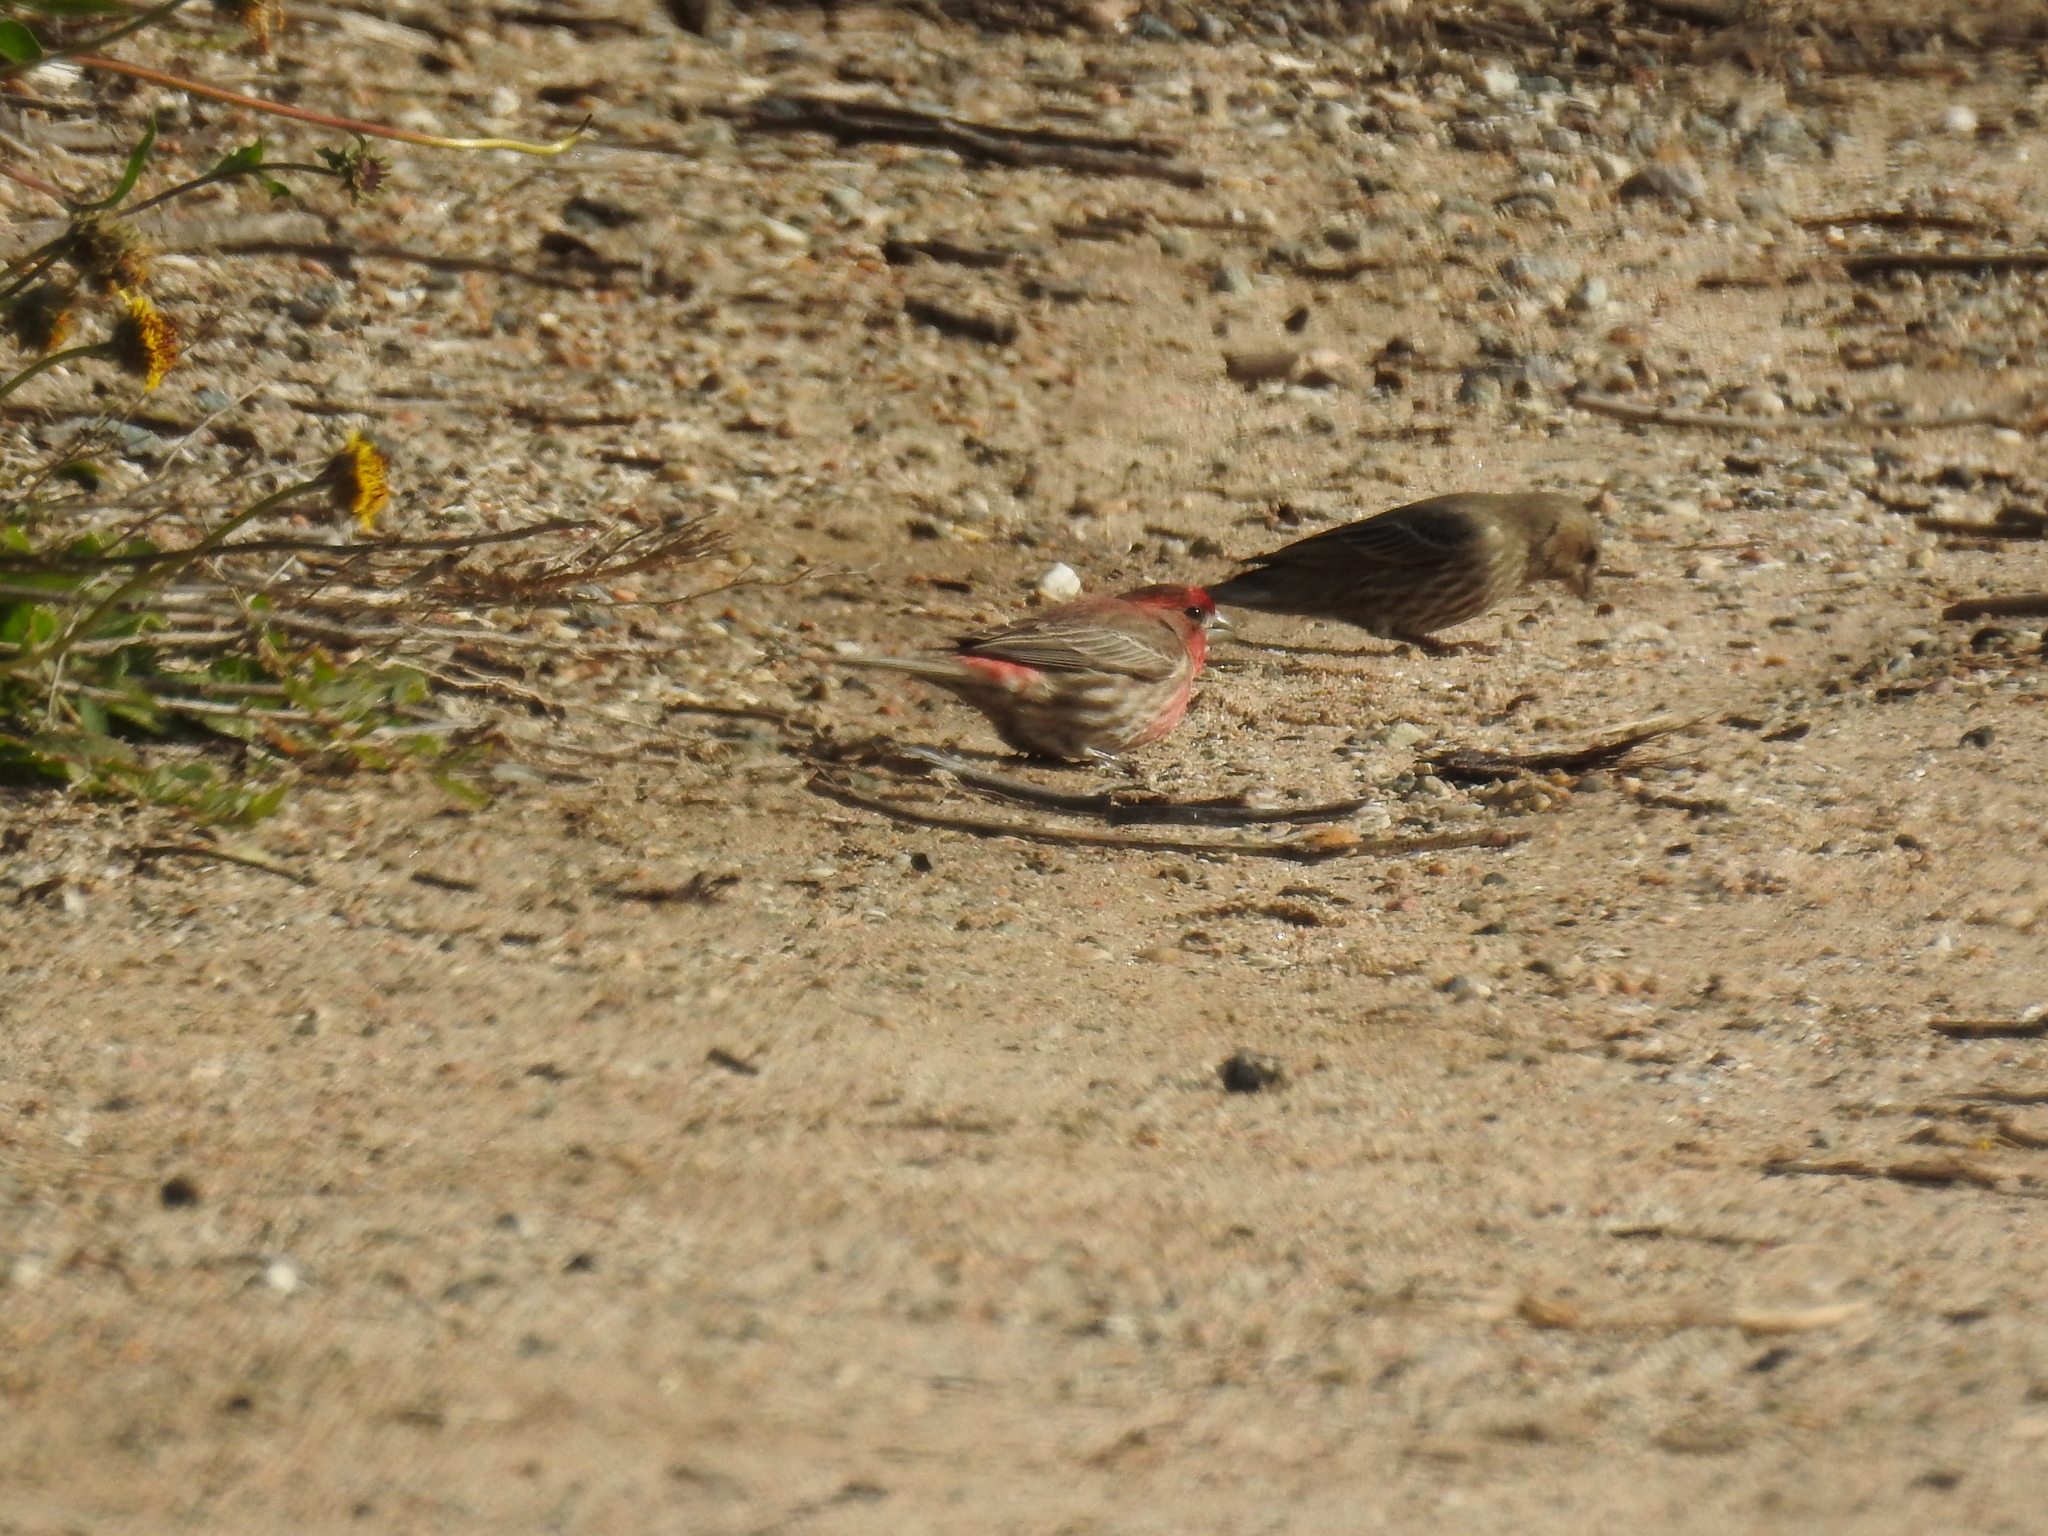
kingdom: Animalia
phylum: Chordata
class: Aves
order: Passeriformes
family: Fringillidae
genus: Haemorhous
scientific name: Haemorhous mexicanus
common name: House finch
